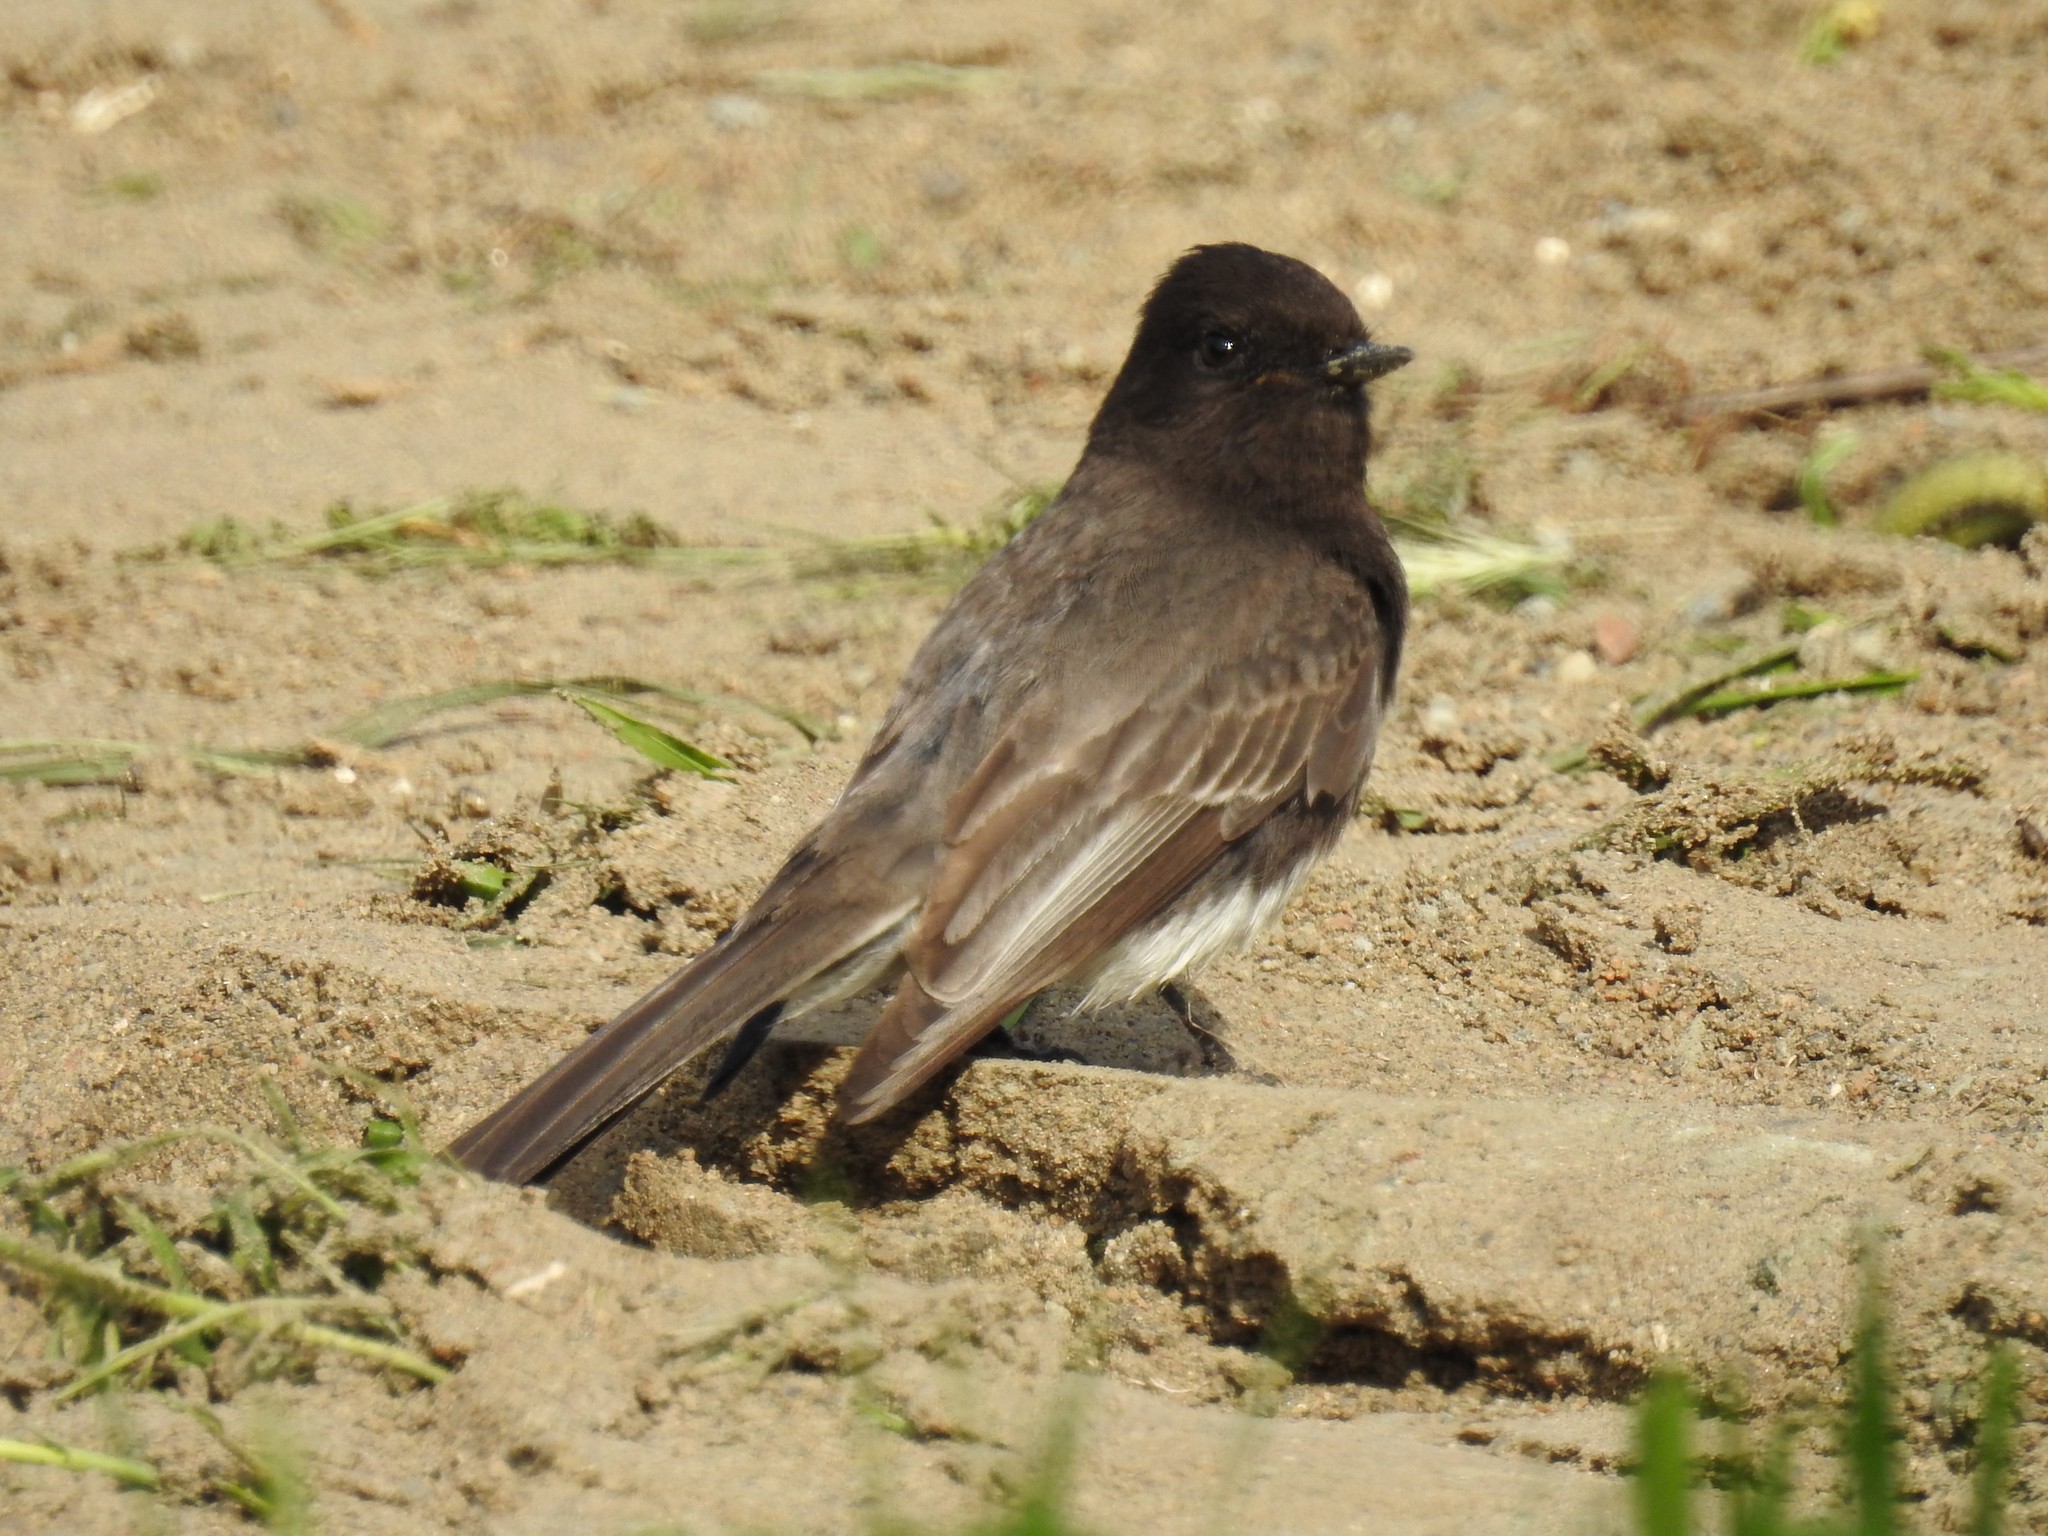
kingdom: Animalia
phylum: Chordata
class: Aves
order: Passeriformes
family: Tyrannidae
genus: Sayornis
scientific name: Sayornis nigricans
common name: Black phoebe
